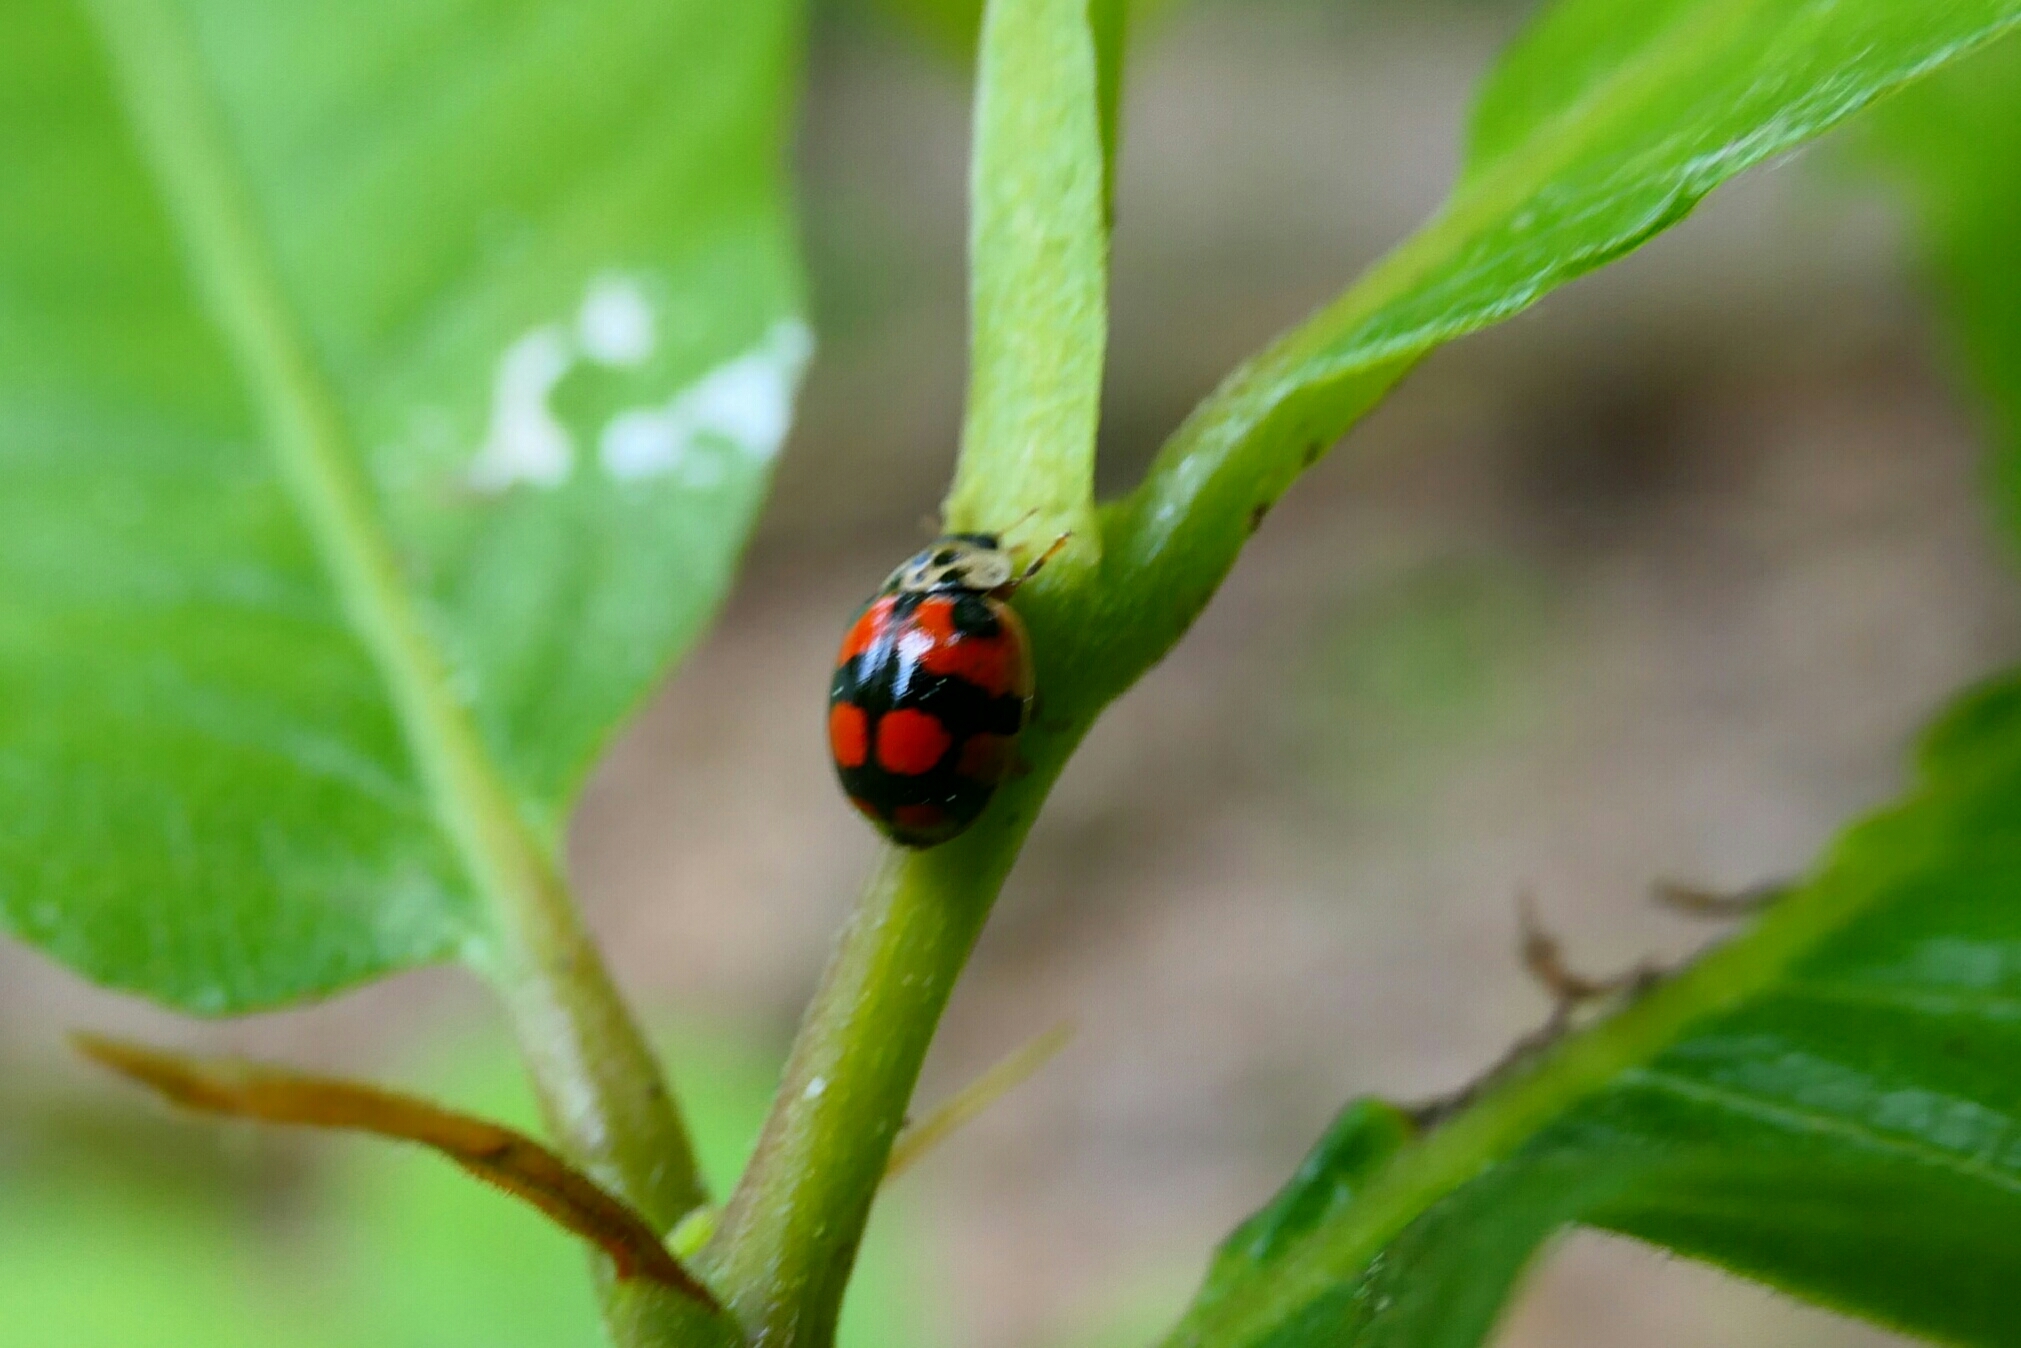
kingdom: Animalia
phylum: Arthropoda
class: Insecta
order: Coleoptera
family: Coccinellidae
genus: Adalia
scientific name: Adalia decempunctata
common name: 10-spot ladybird
